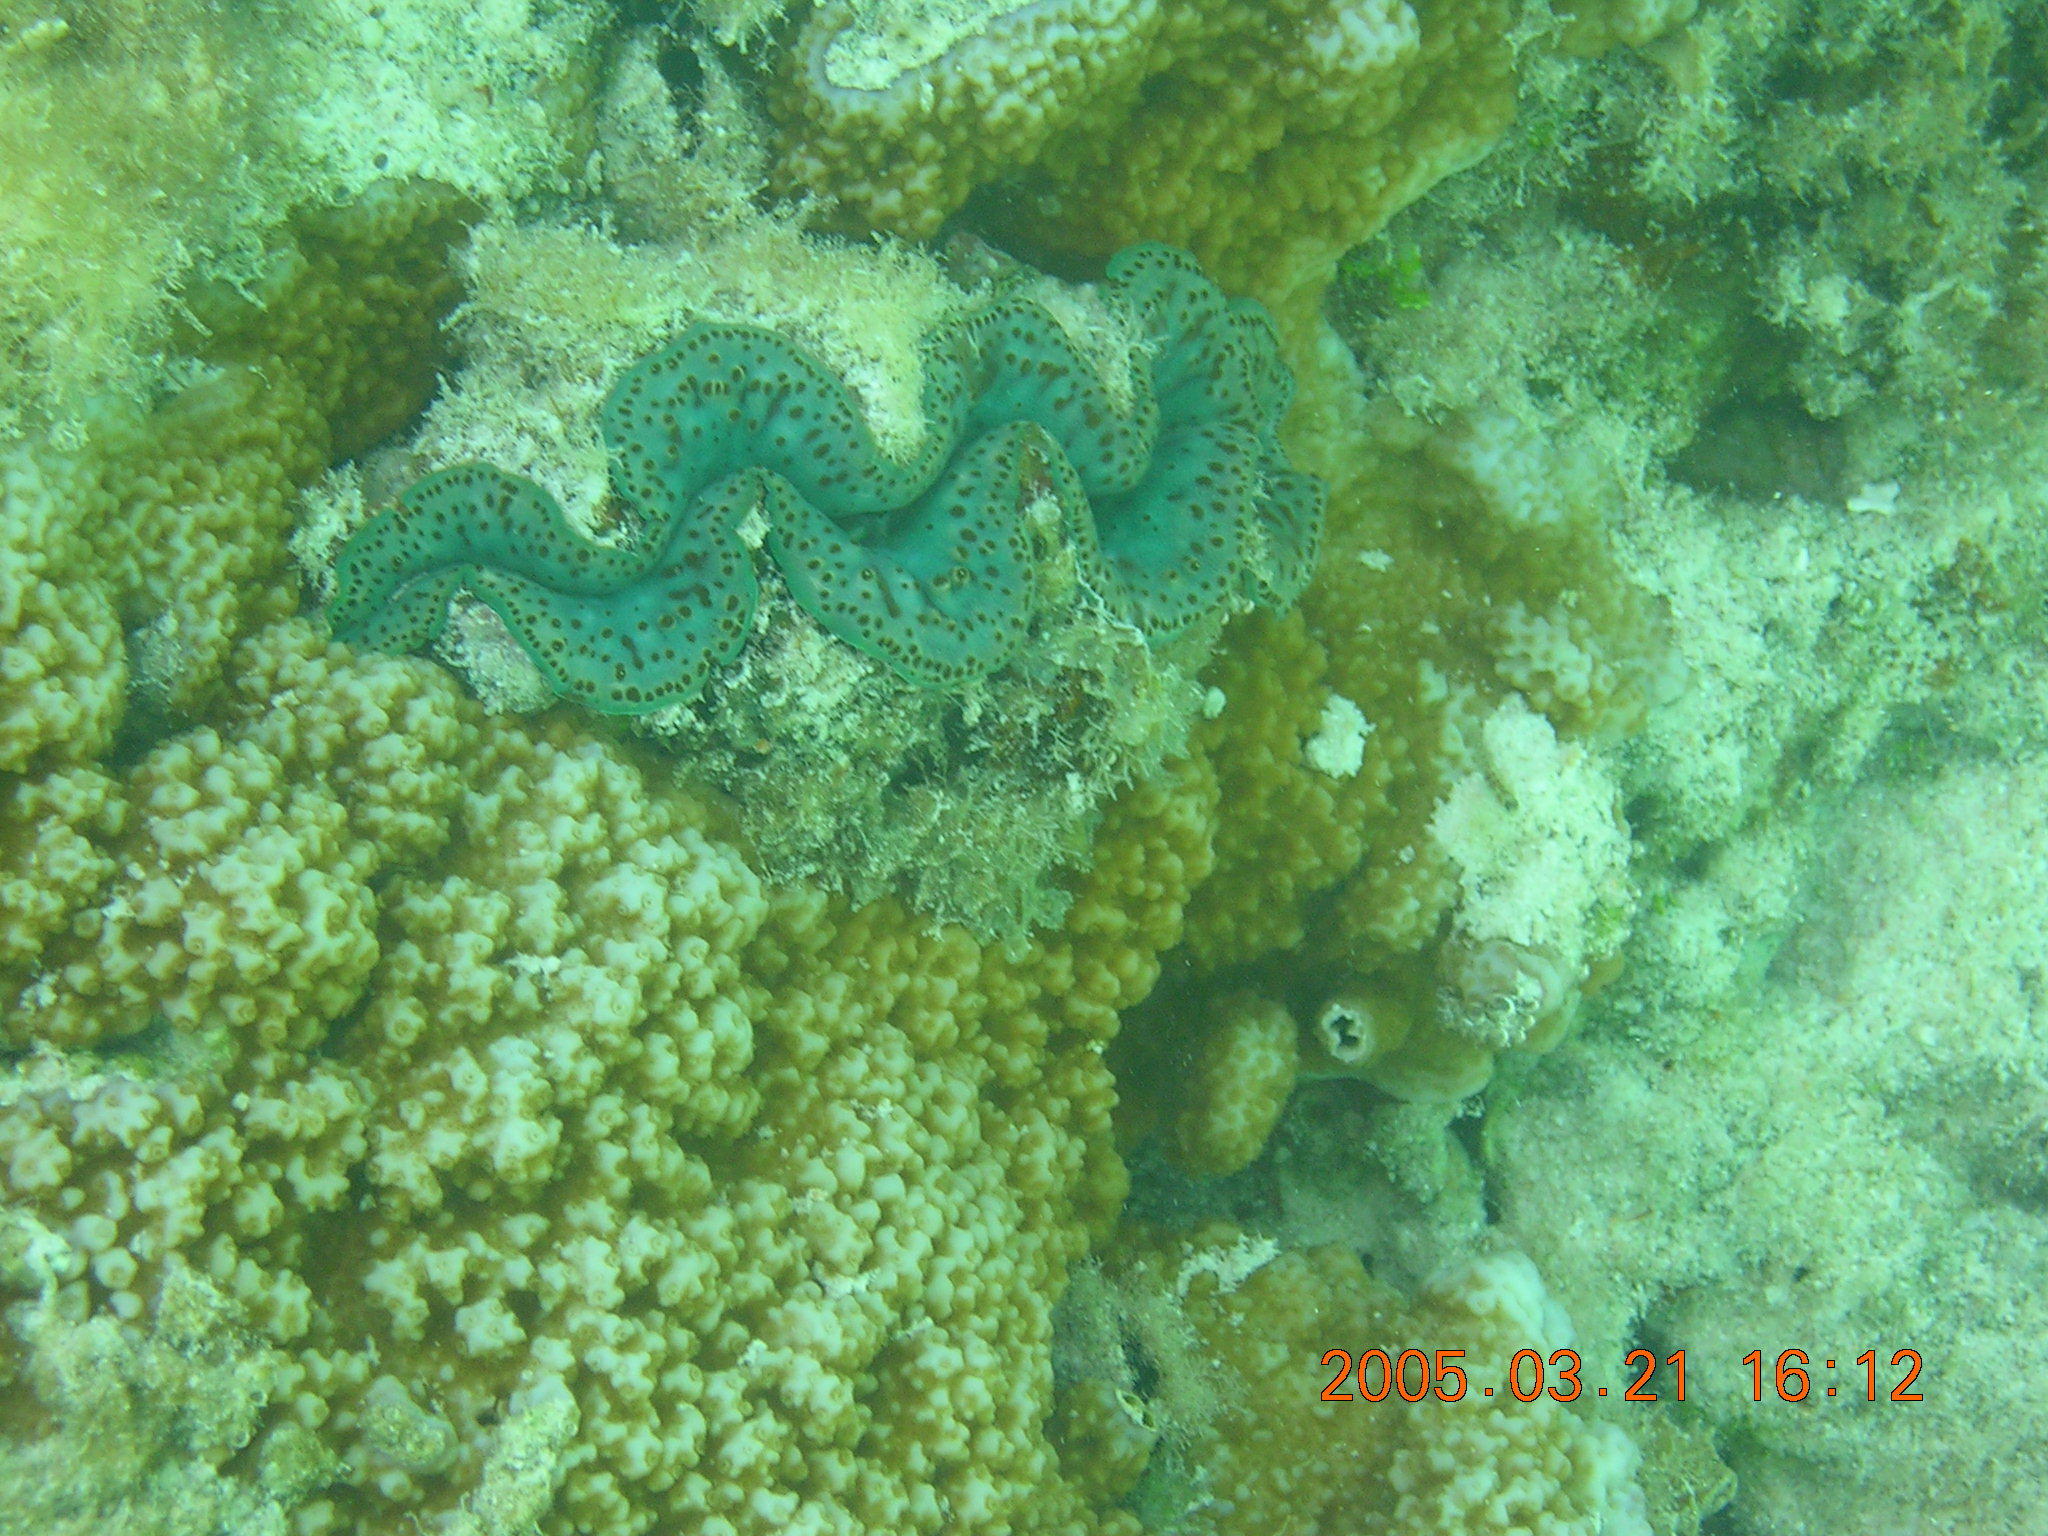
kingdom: Animalia
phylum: Mollusca
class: Bivalvia
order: Cardiida
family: Cardiidae
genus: Tridacna
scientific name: Tridacna maxima
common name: Small giant clam
